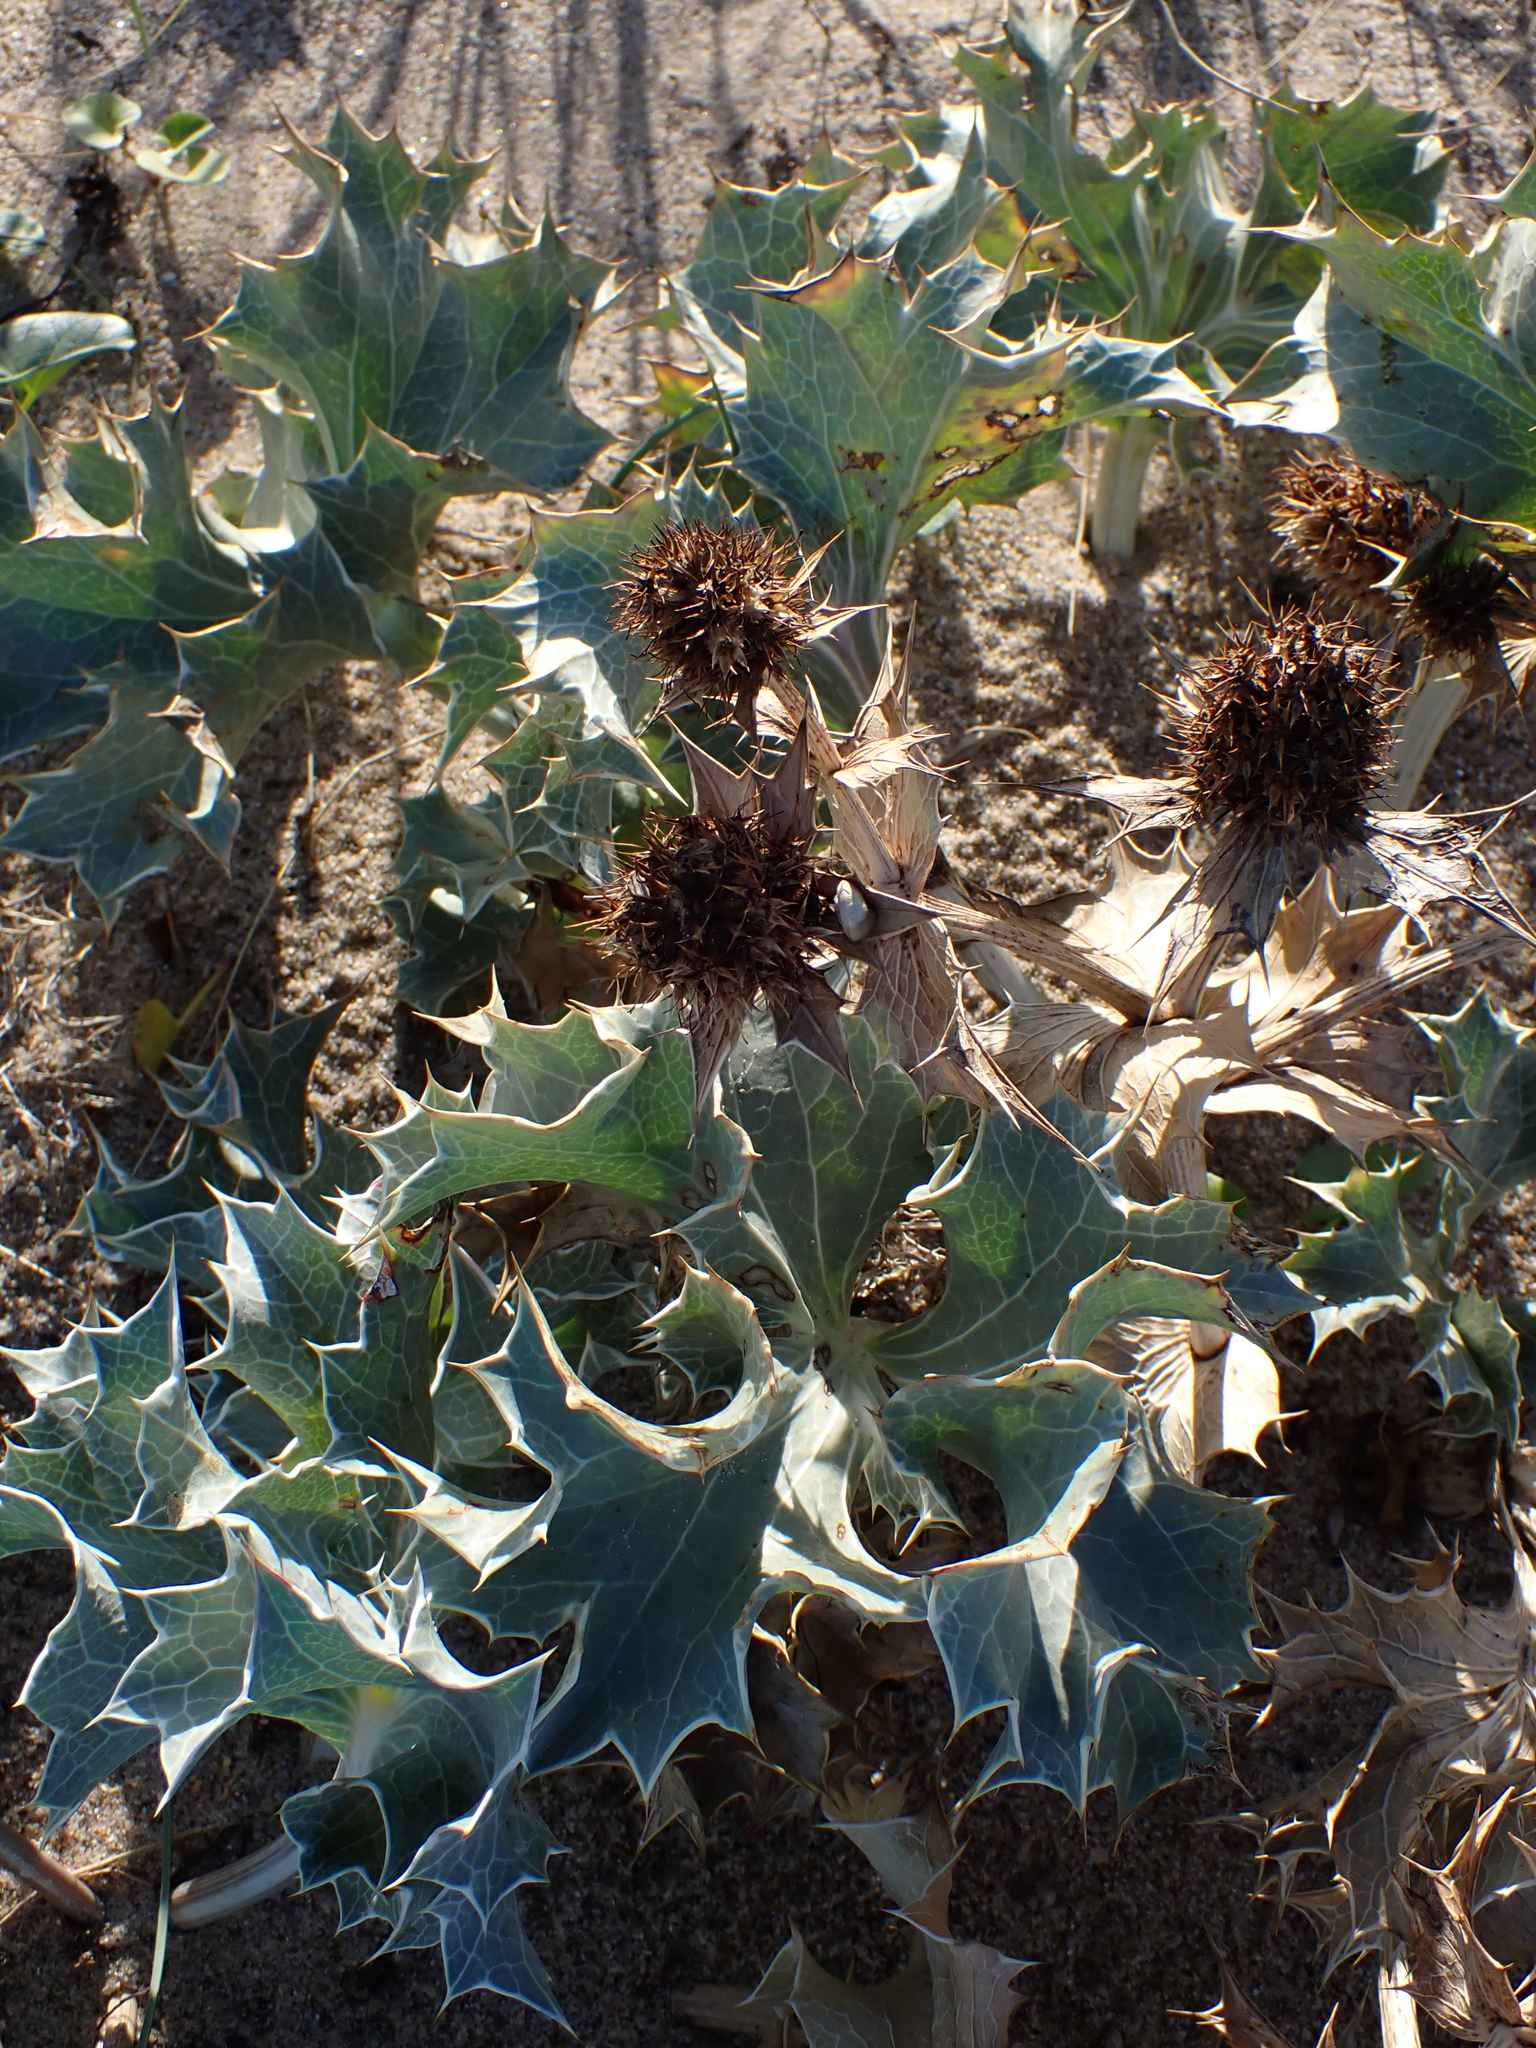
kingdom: Plantae
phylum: Tracheophyta
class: Magnoliopsida
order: Apiales
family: Apiaceae
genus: Eryngium
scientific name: Eryngium maritimum
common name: Sea-holly
